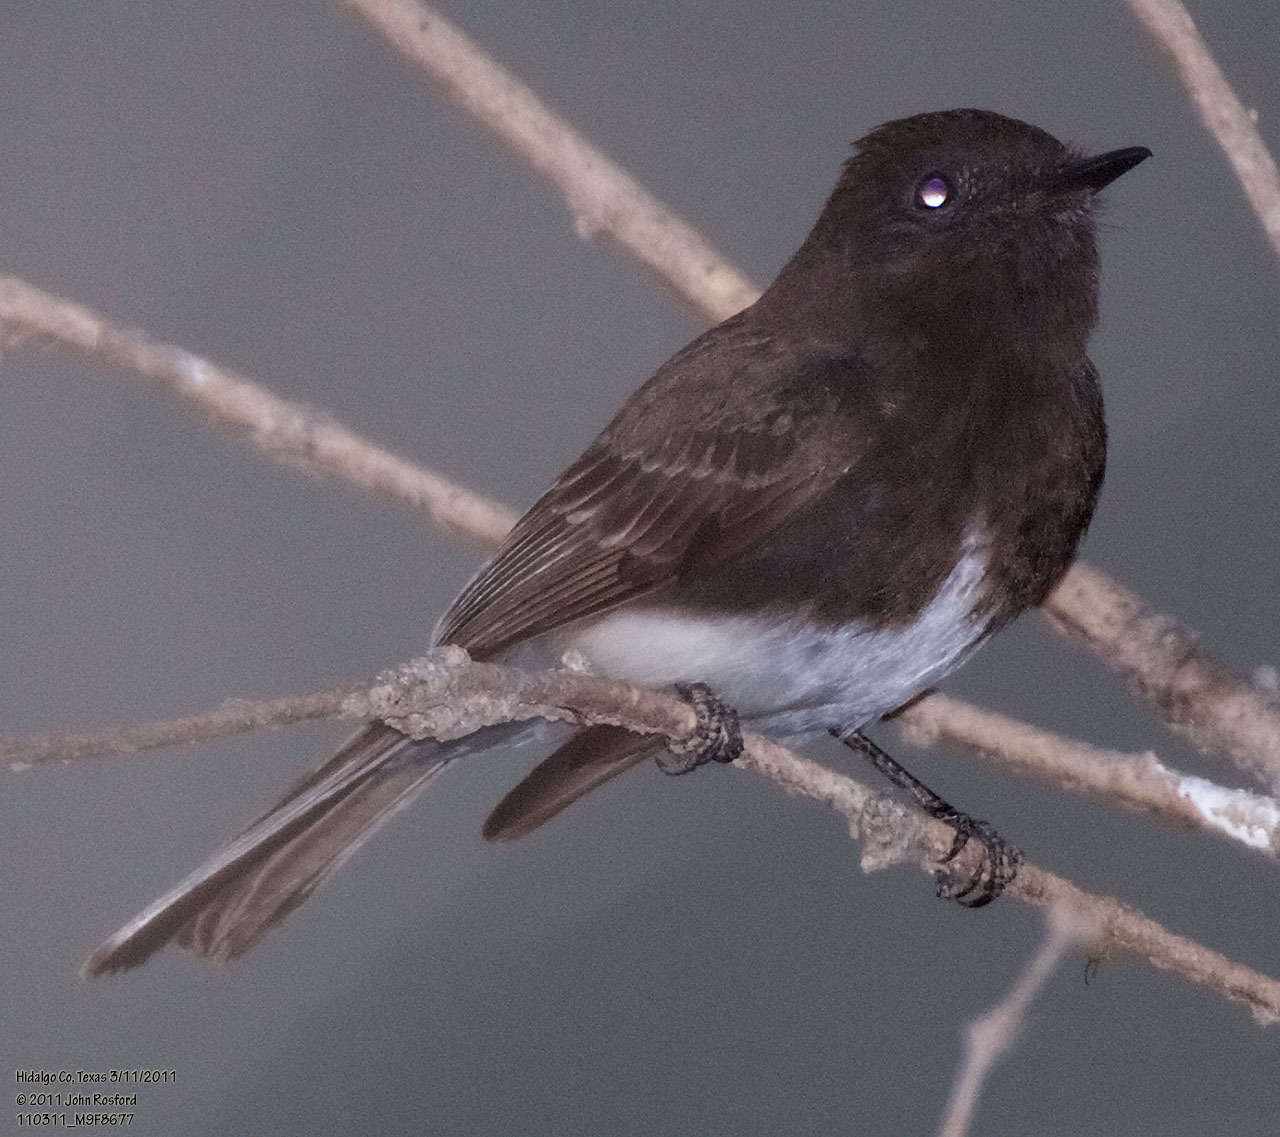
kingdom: Animalia
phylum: Chordata
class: Aves
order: Passeriformes
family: Tyrannidae
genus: Sayornis
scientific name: Sayornis nigricans
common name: Black phoebe
